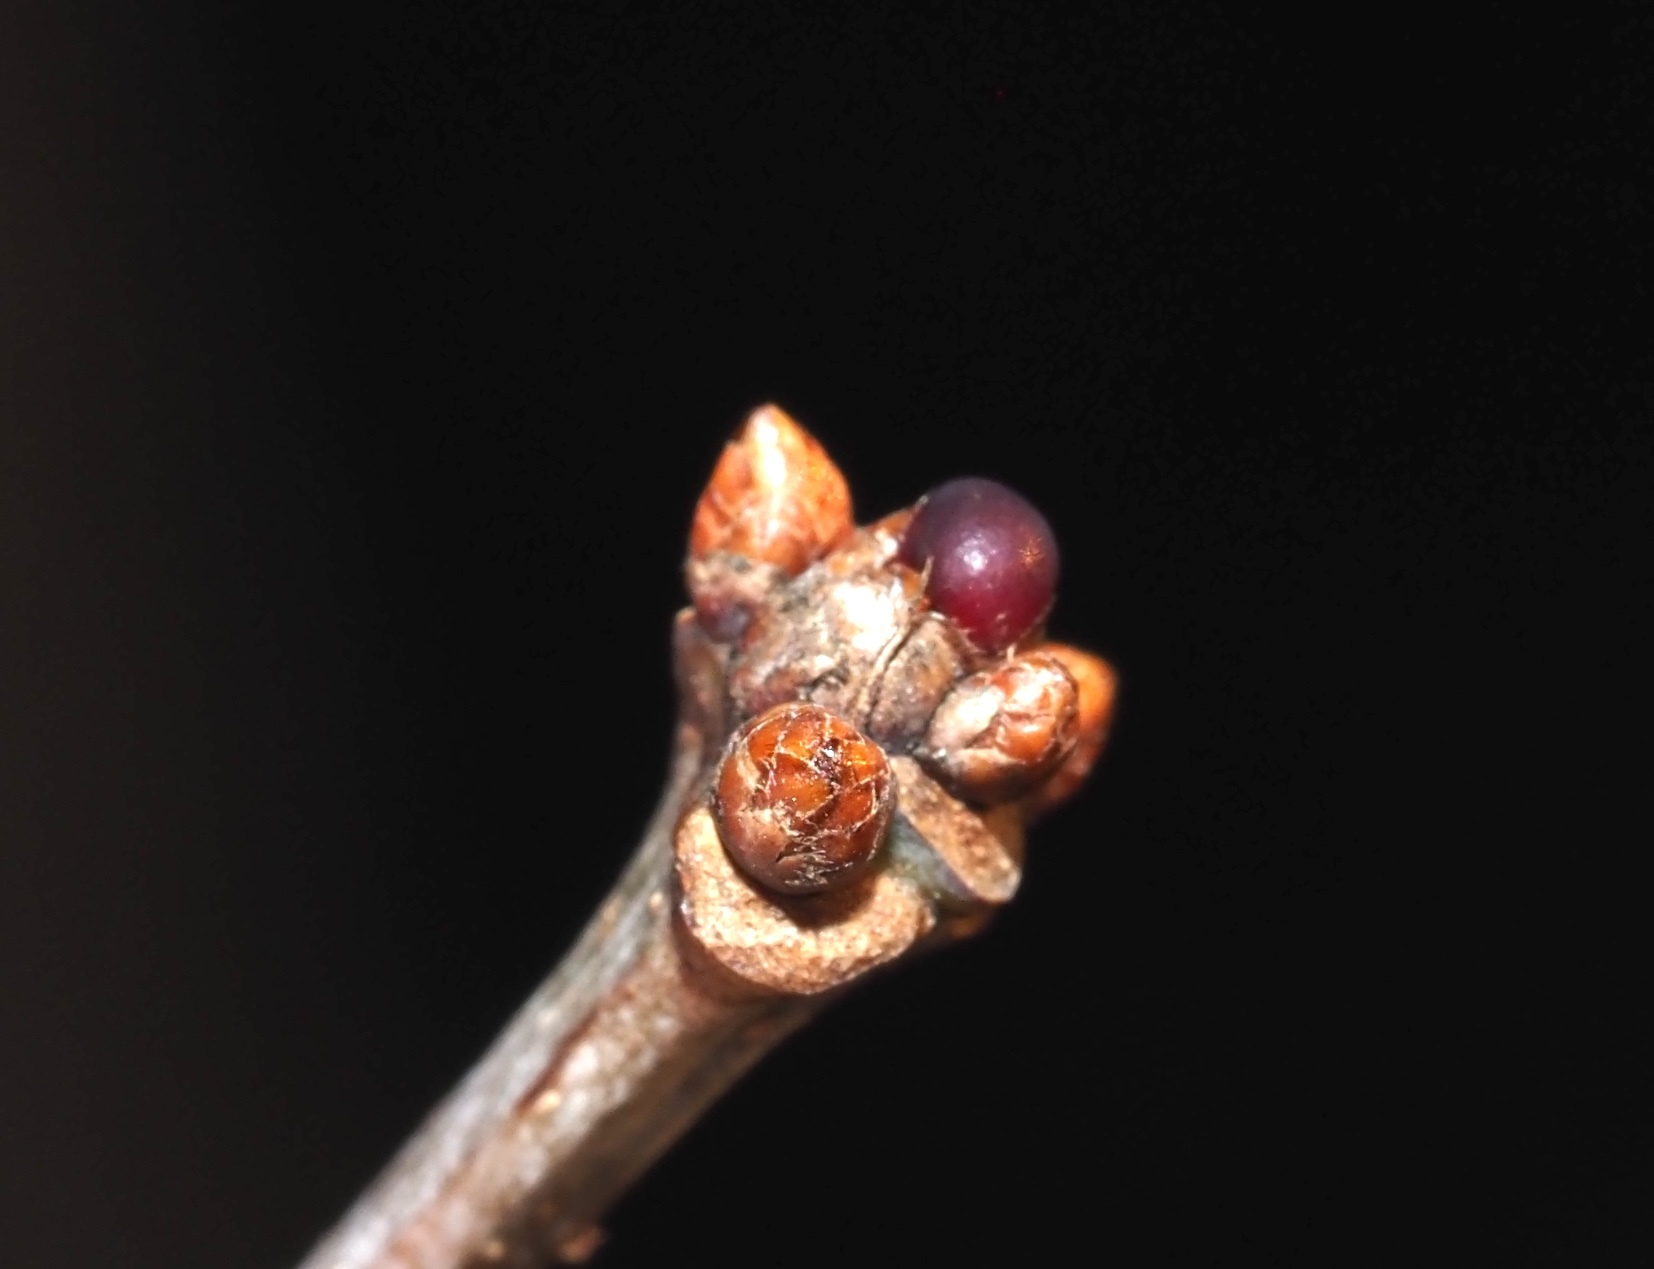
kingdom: Animalia
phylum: Arthropoda
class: Insecta
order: Hymenoptera
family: Cynipidae
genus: Neuroterus
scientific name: Neuroterus
